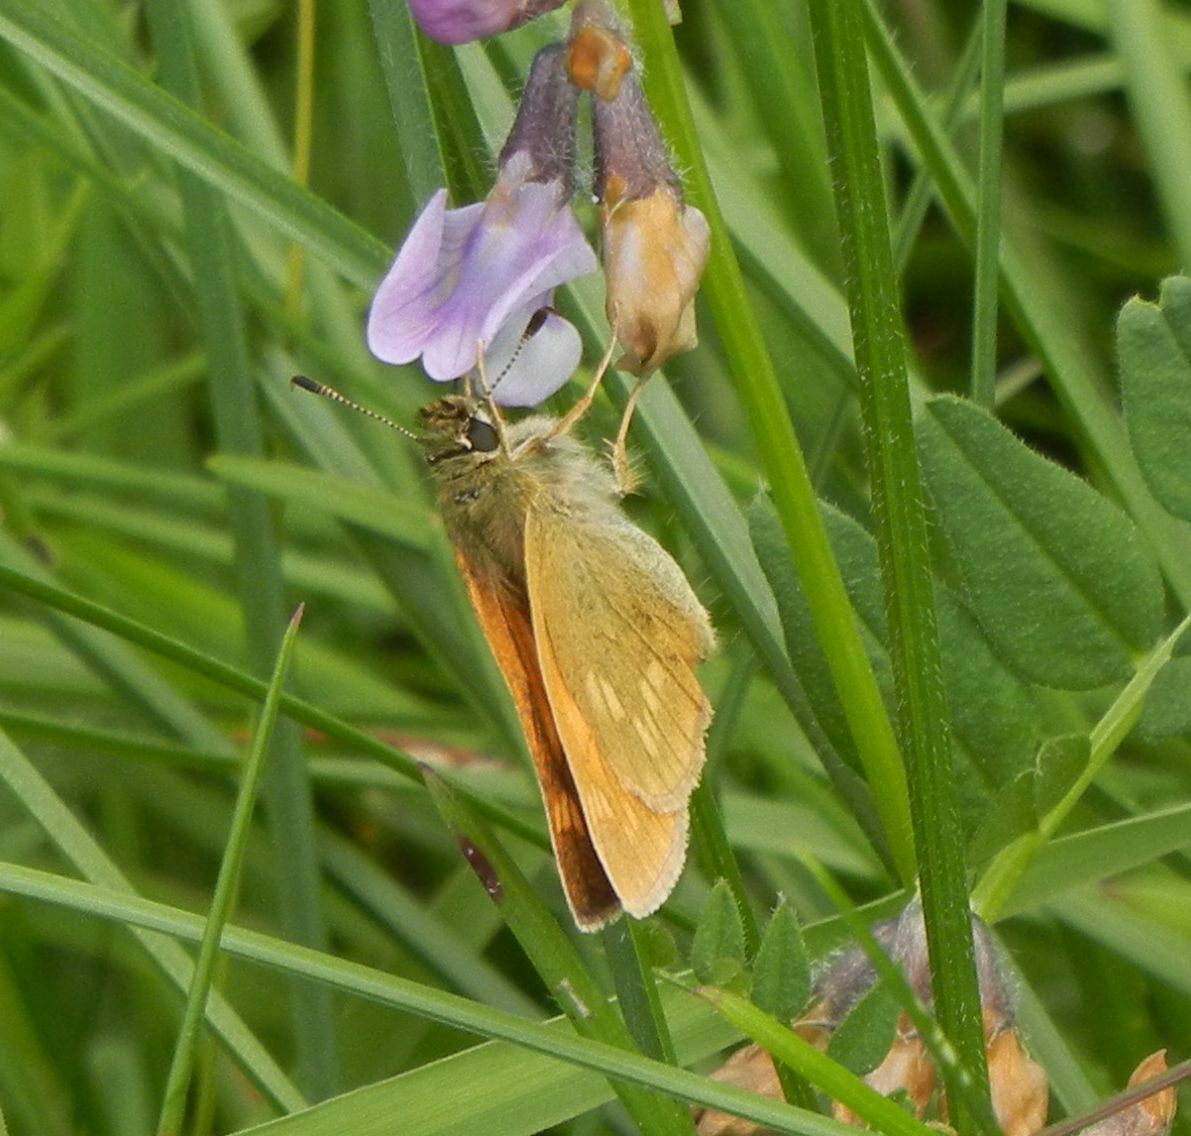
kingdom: Animalia
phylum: Arthropoda
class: Insecta
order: Lepidoptera
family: Hesperiidae
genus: Ochlodes
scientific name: Ochlodes venata
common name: Large skipper
